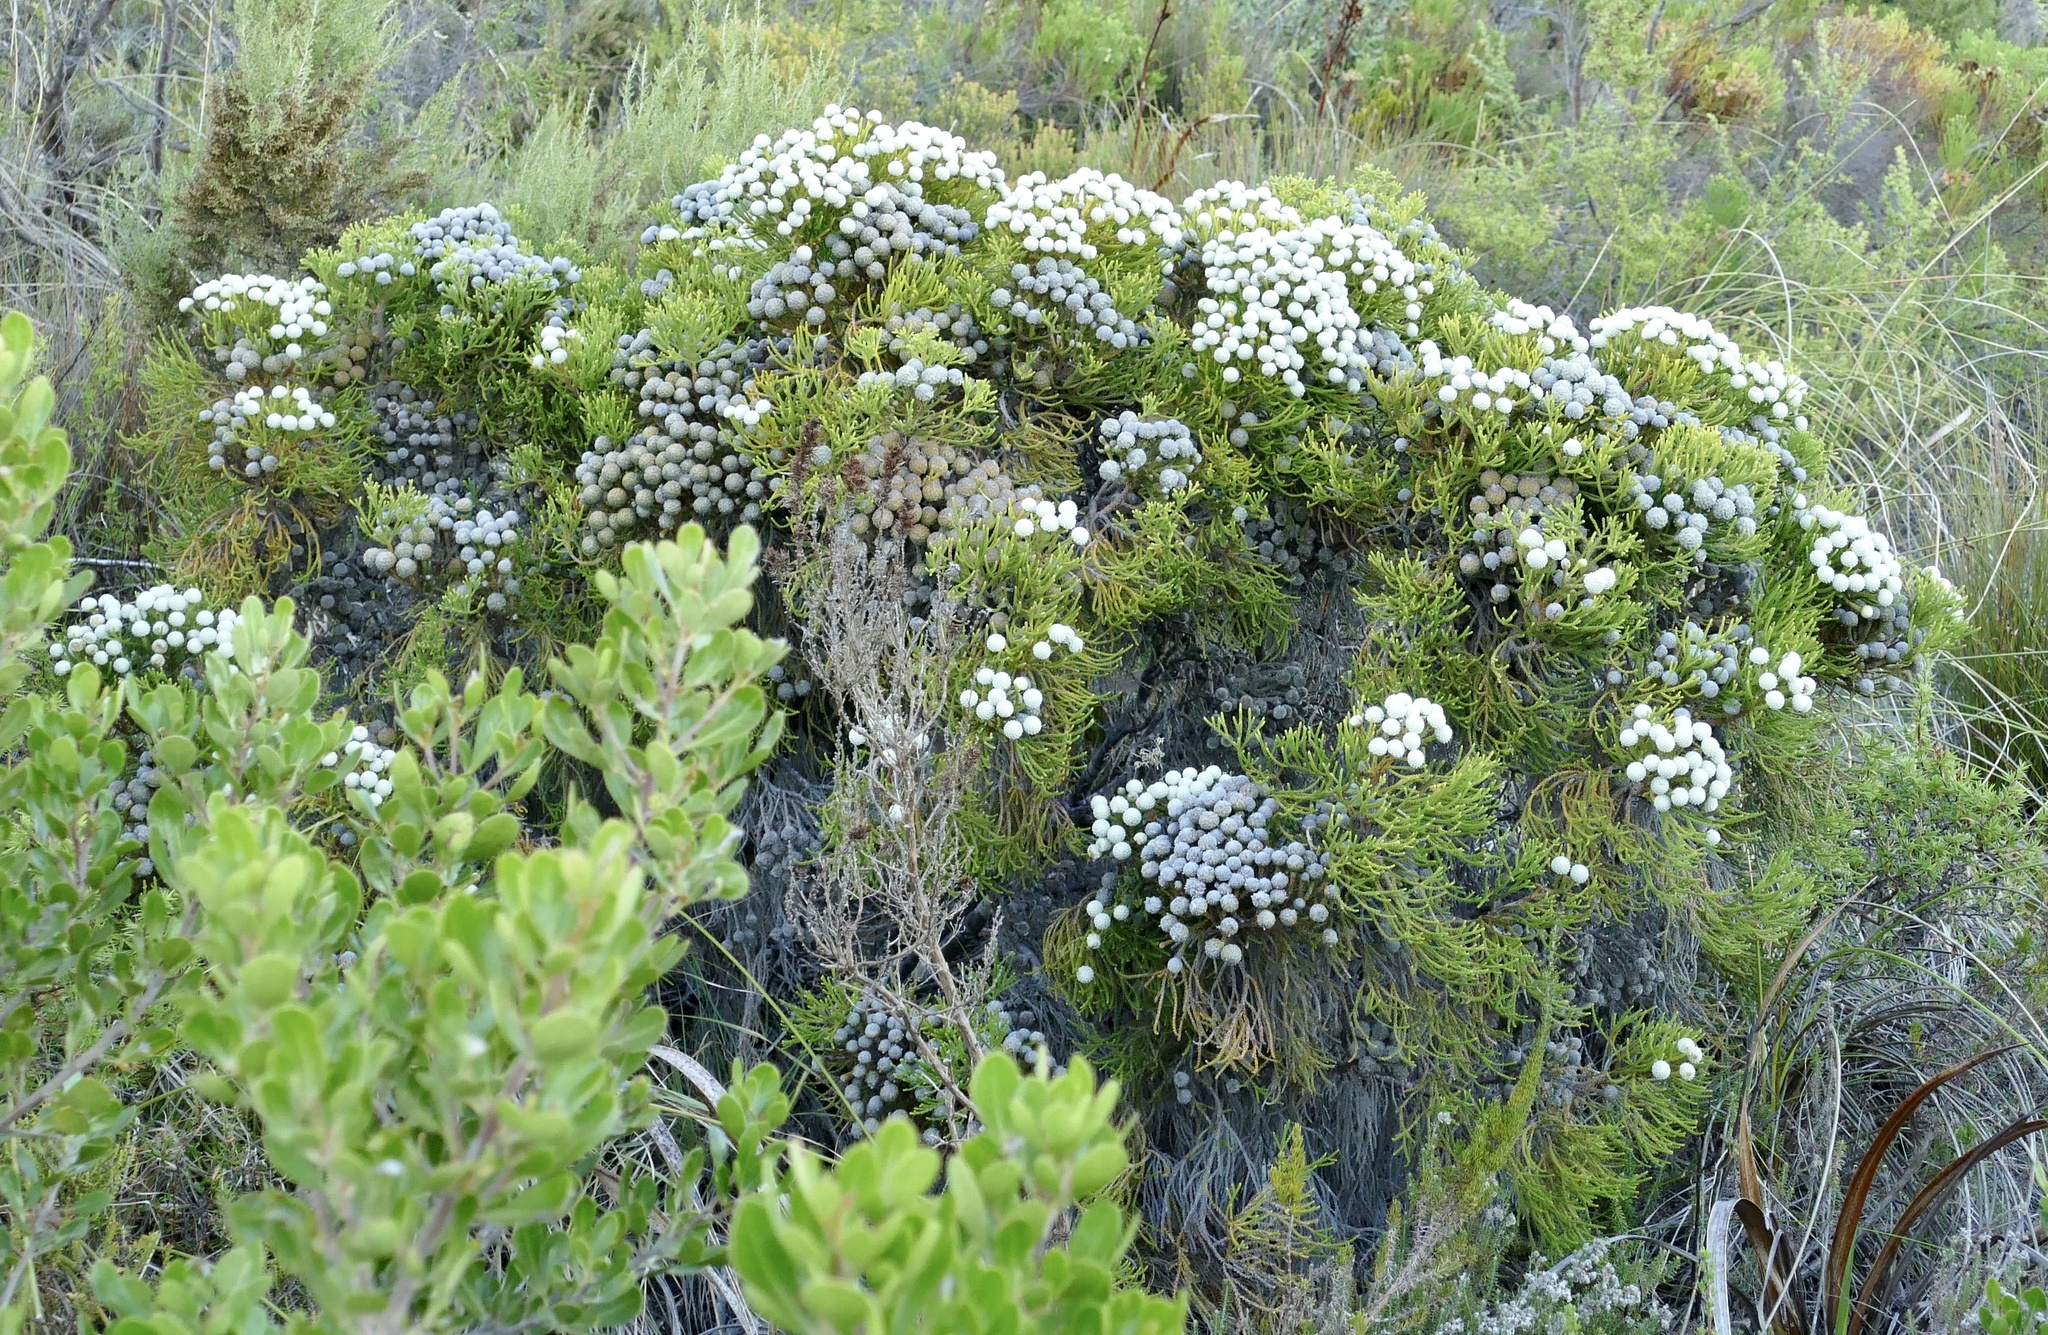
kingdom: Plantae
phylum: Tracheophyta
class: Magnoliopsida
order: Bruniales
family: Bruniaceae
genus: Brunia
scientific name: Brunia noduliflora
